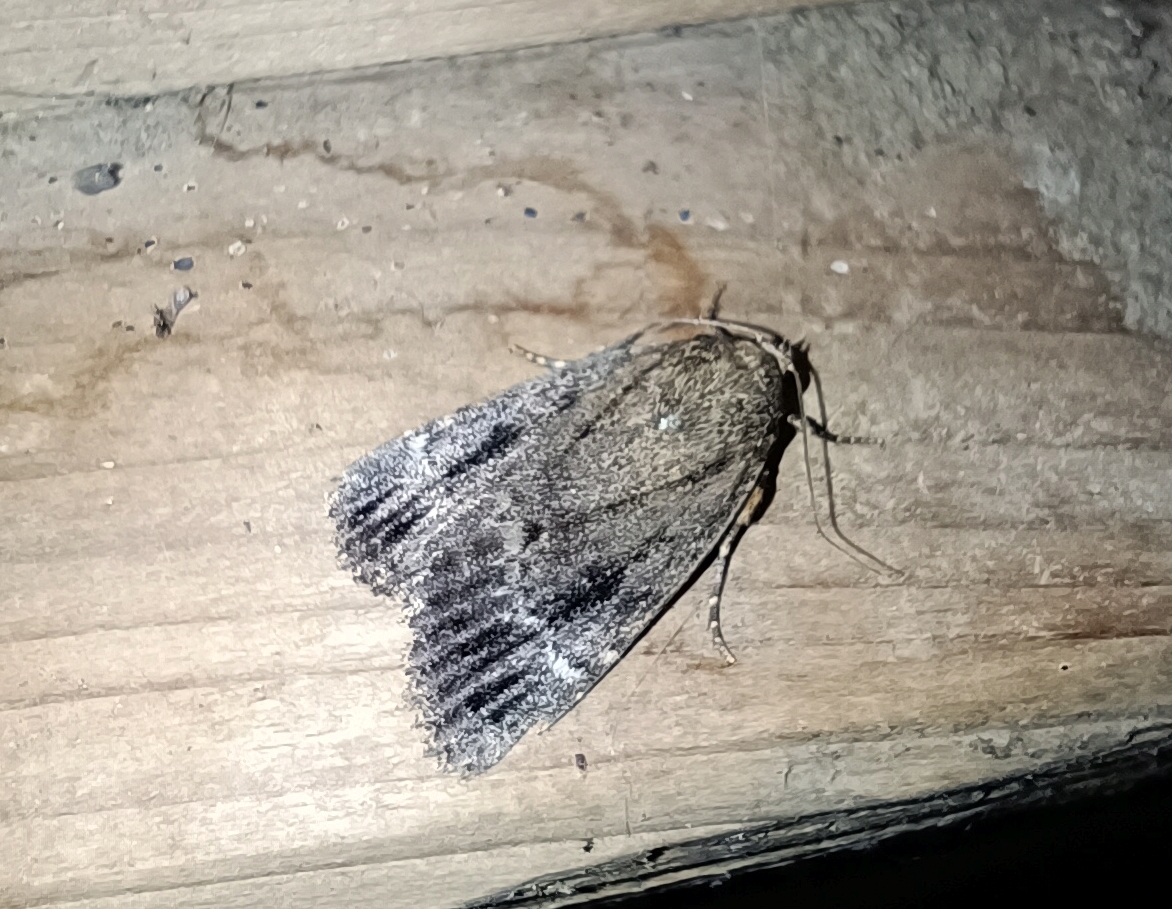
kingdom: Animalia
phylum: Arthropoda
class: Insecta
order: Lepidoptera
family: Noctuidae
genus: Amphipyra
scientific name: Amphipyra pyramidea
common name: Copper underwing
